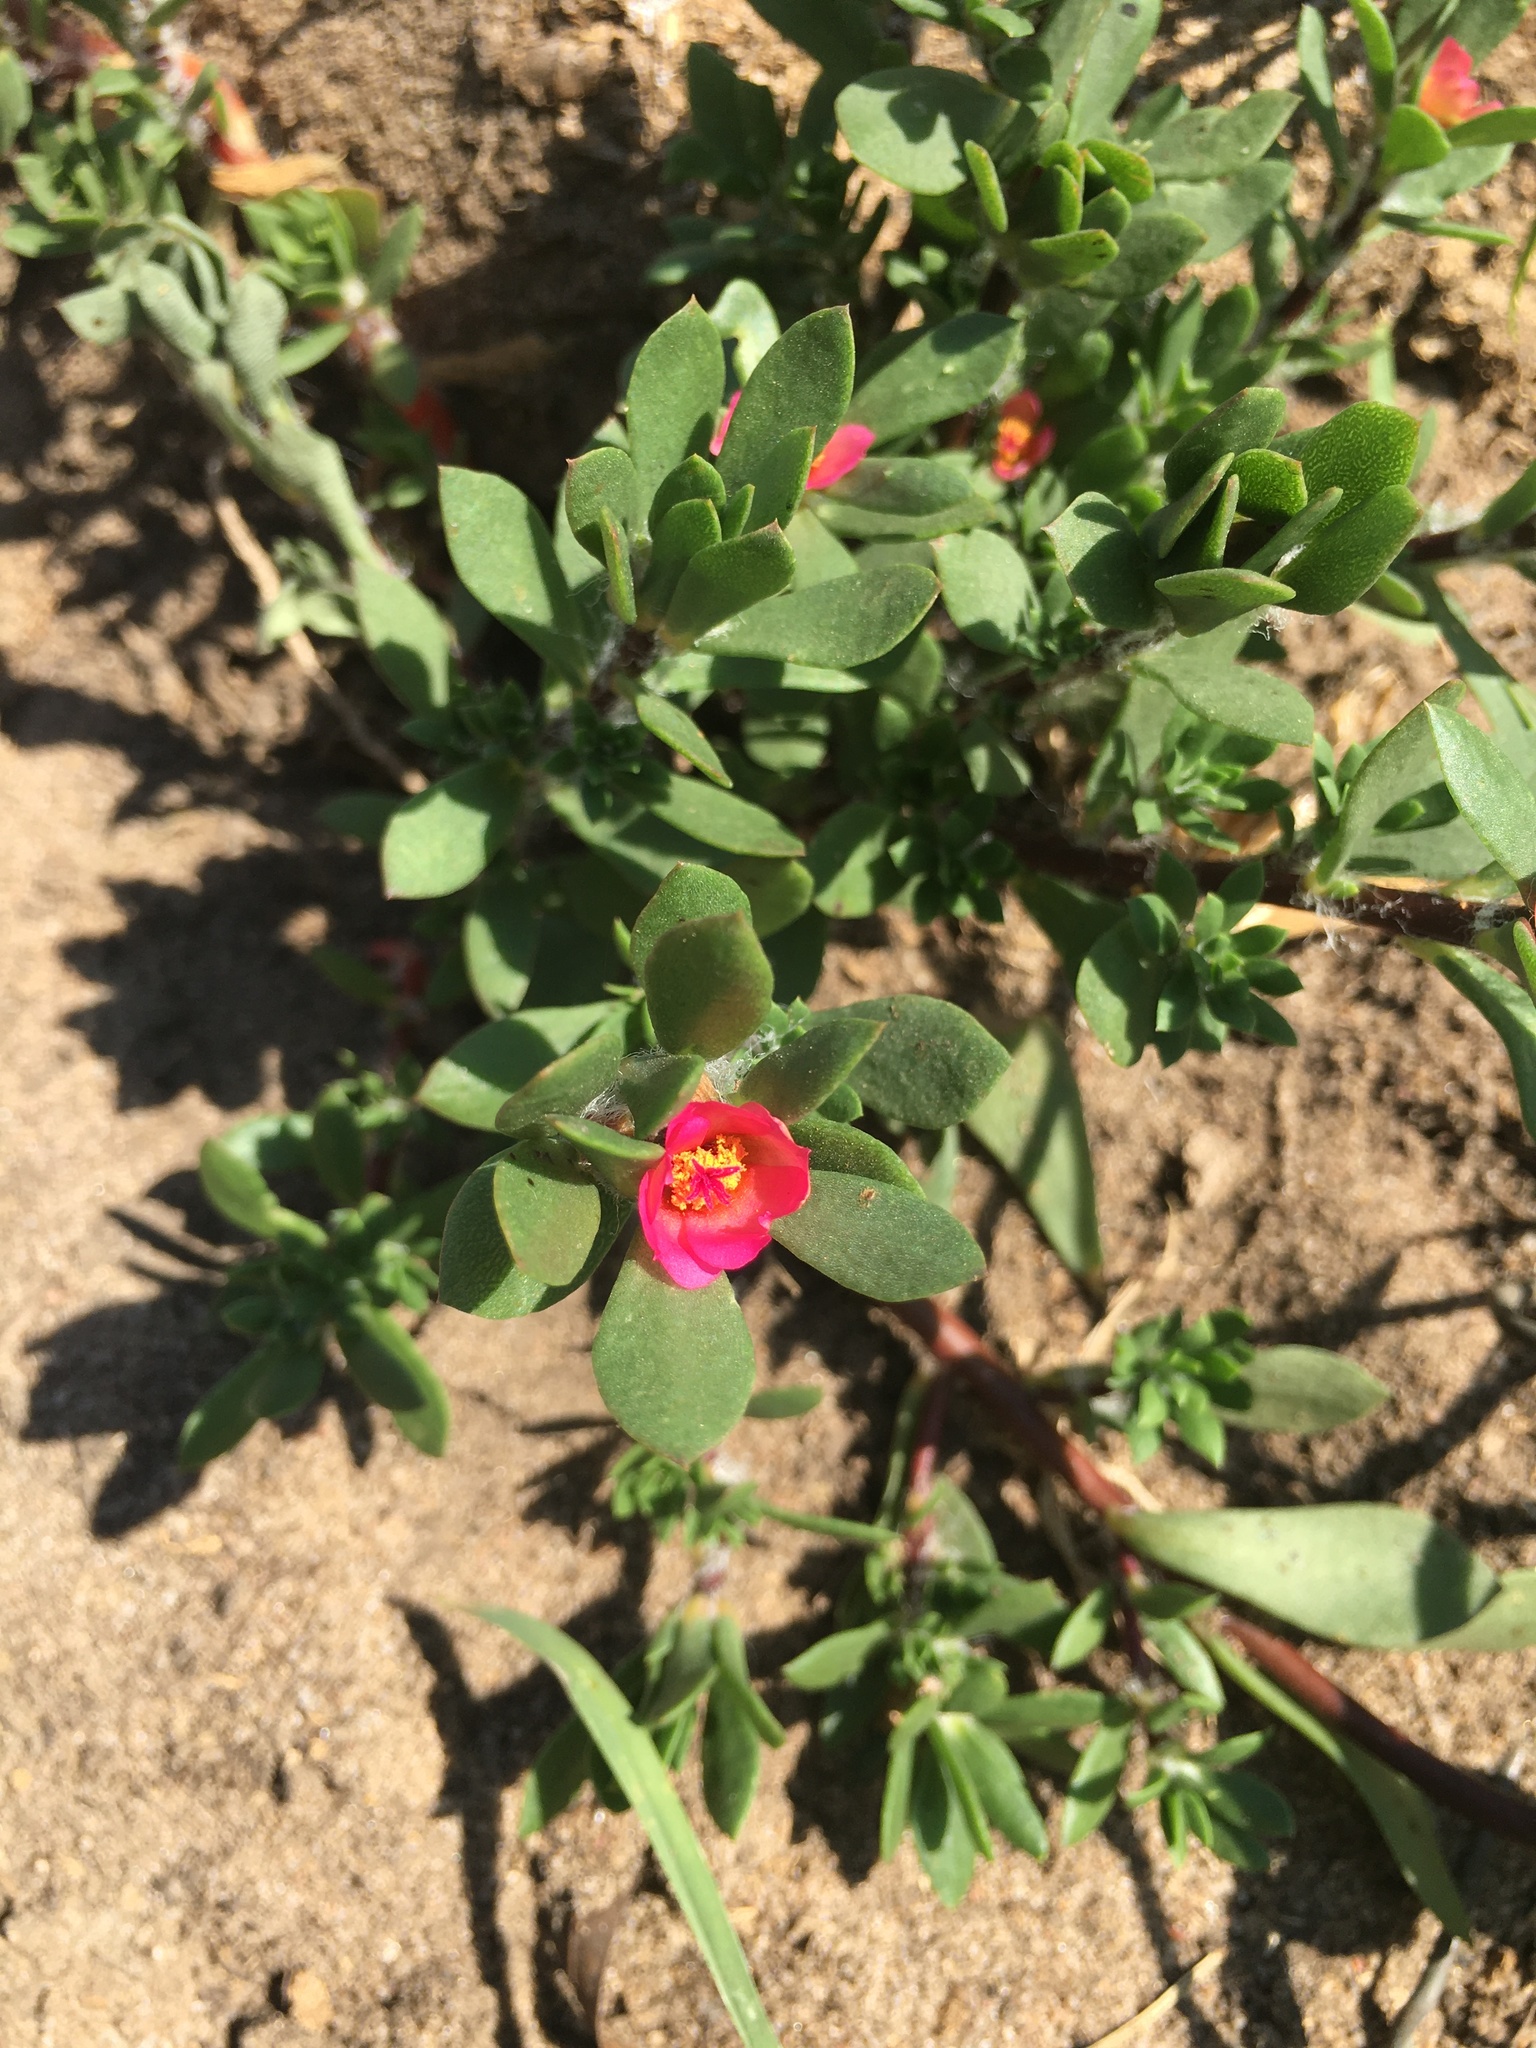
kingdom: Plantae
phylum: Tracheophyta
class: Magnoliopsida
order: Caryophyllales
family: Portulacaceae
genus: Portulaca
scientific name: Portulaca amilis
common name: Paraguayan purslane
